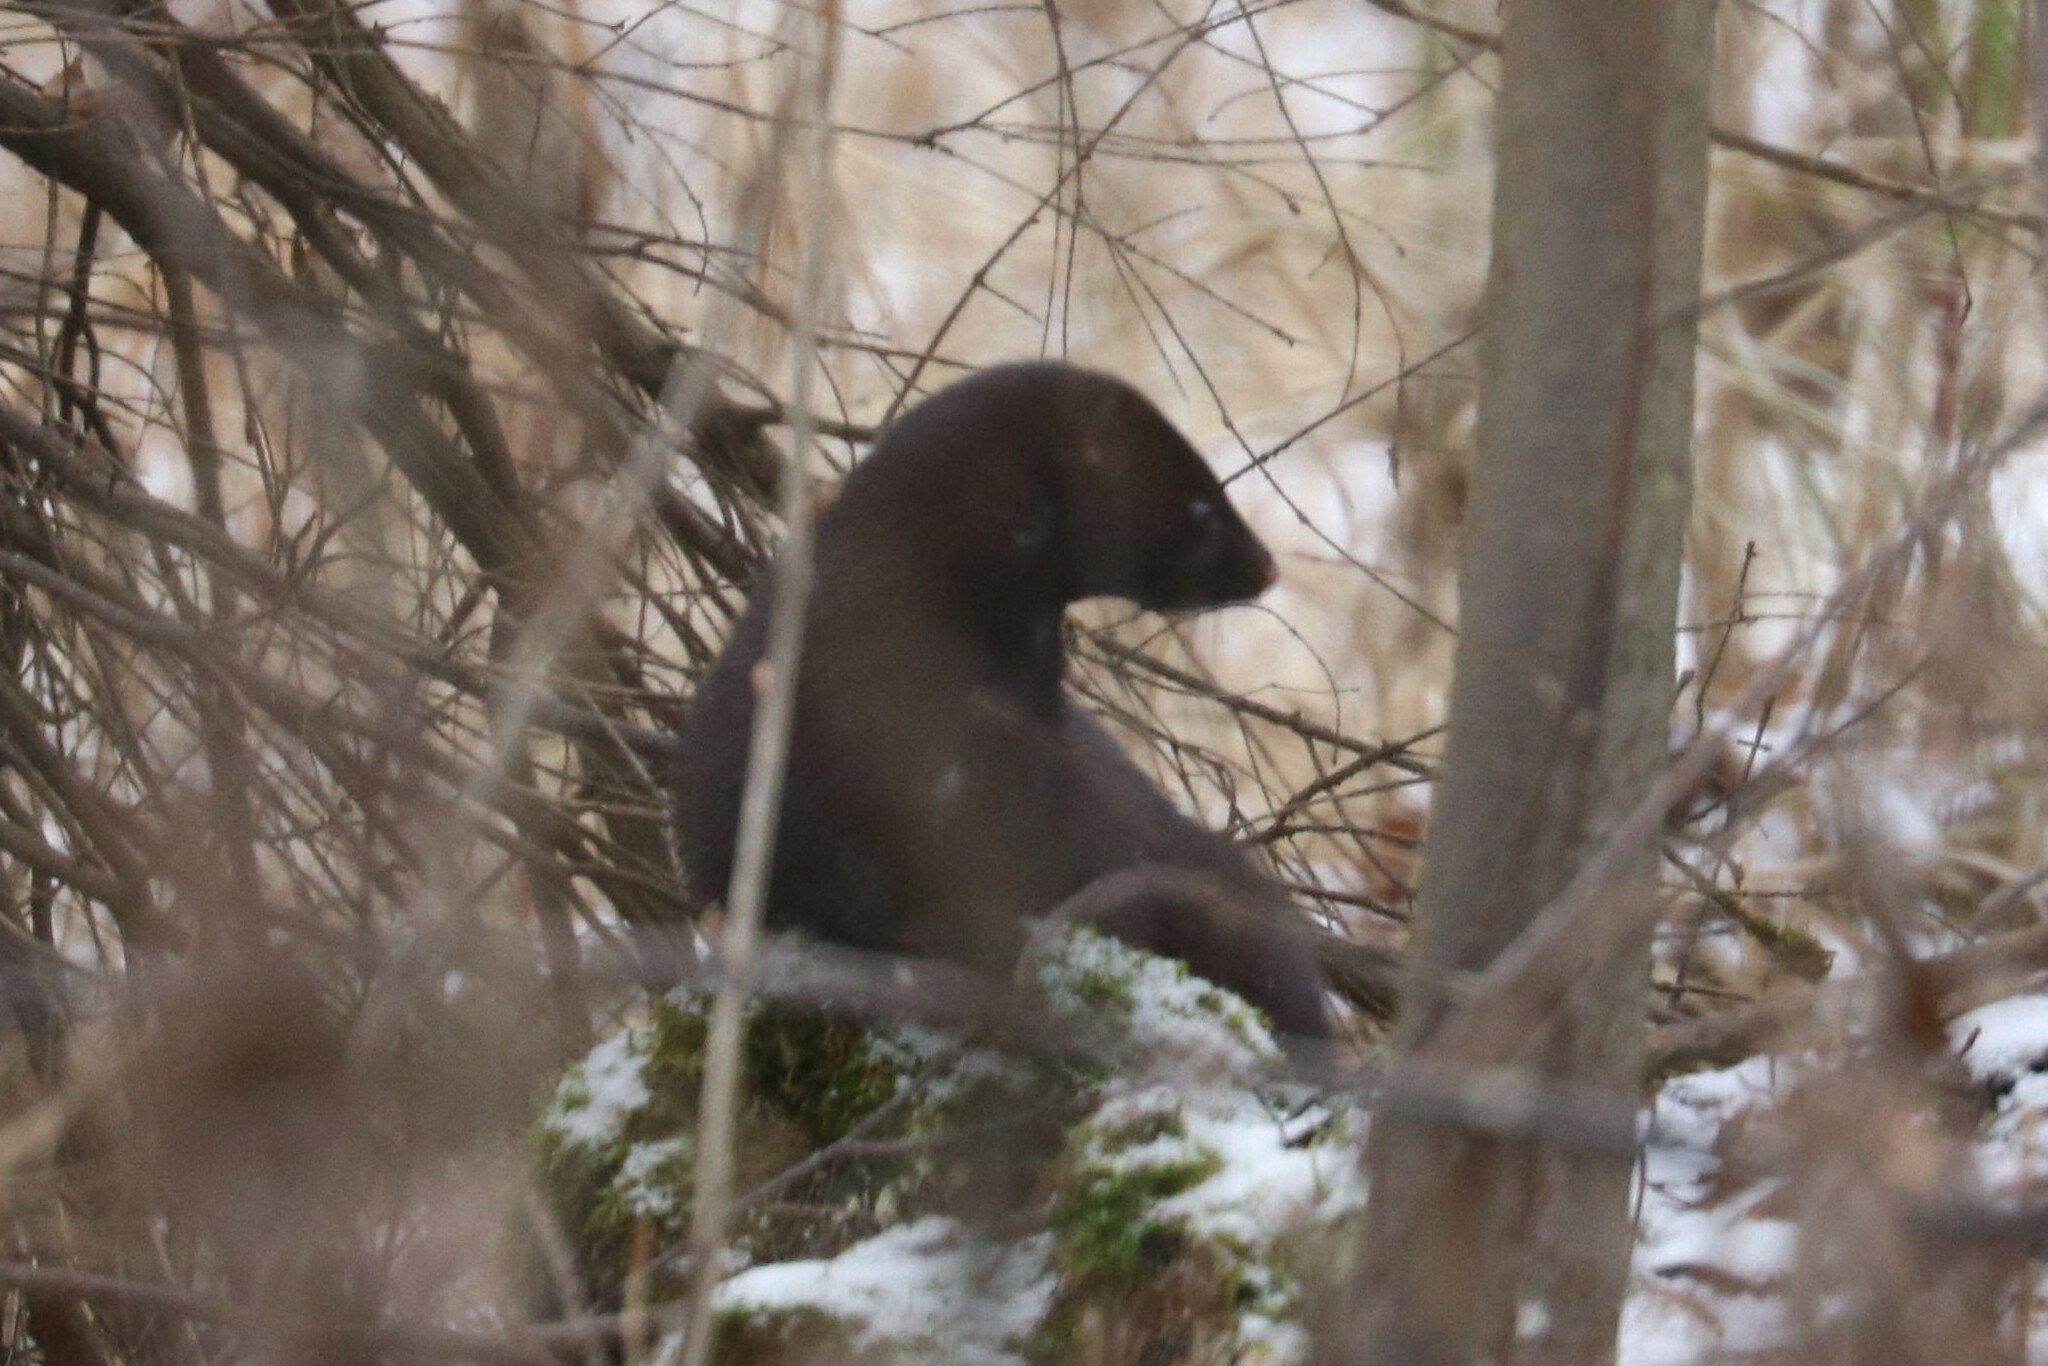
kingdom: Animalia
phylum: Chordata
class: Mammalia
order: Carnivora
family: Mustelidae
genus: Mustela
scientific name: Mustela
